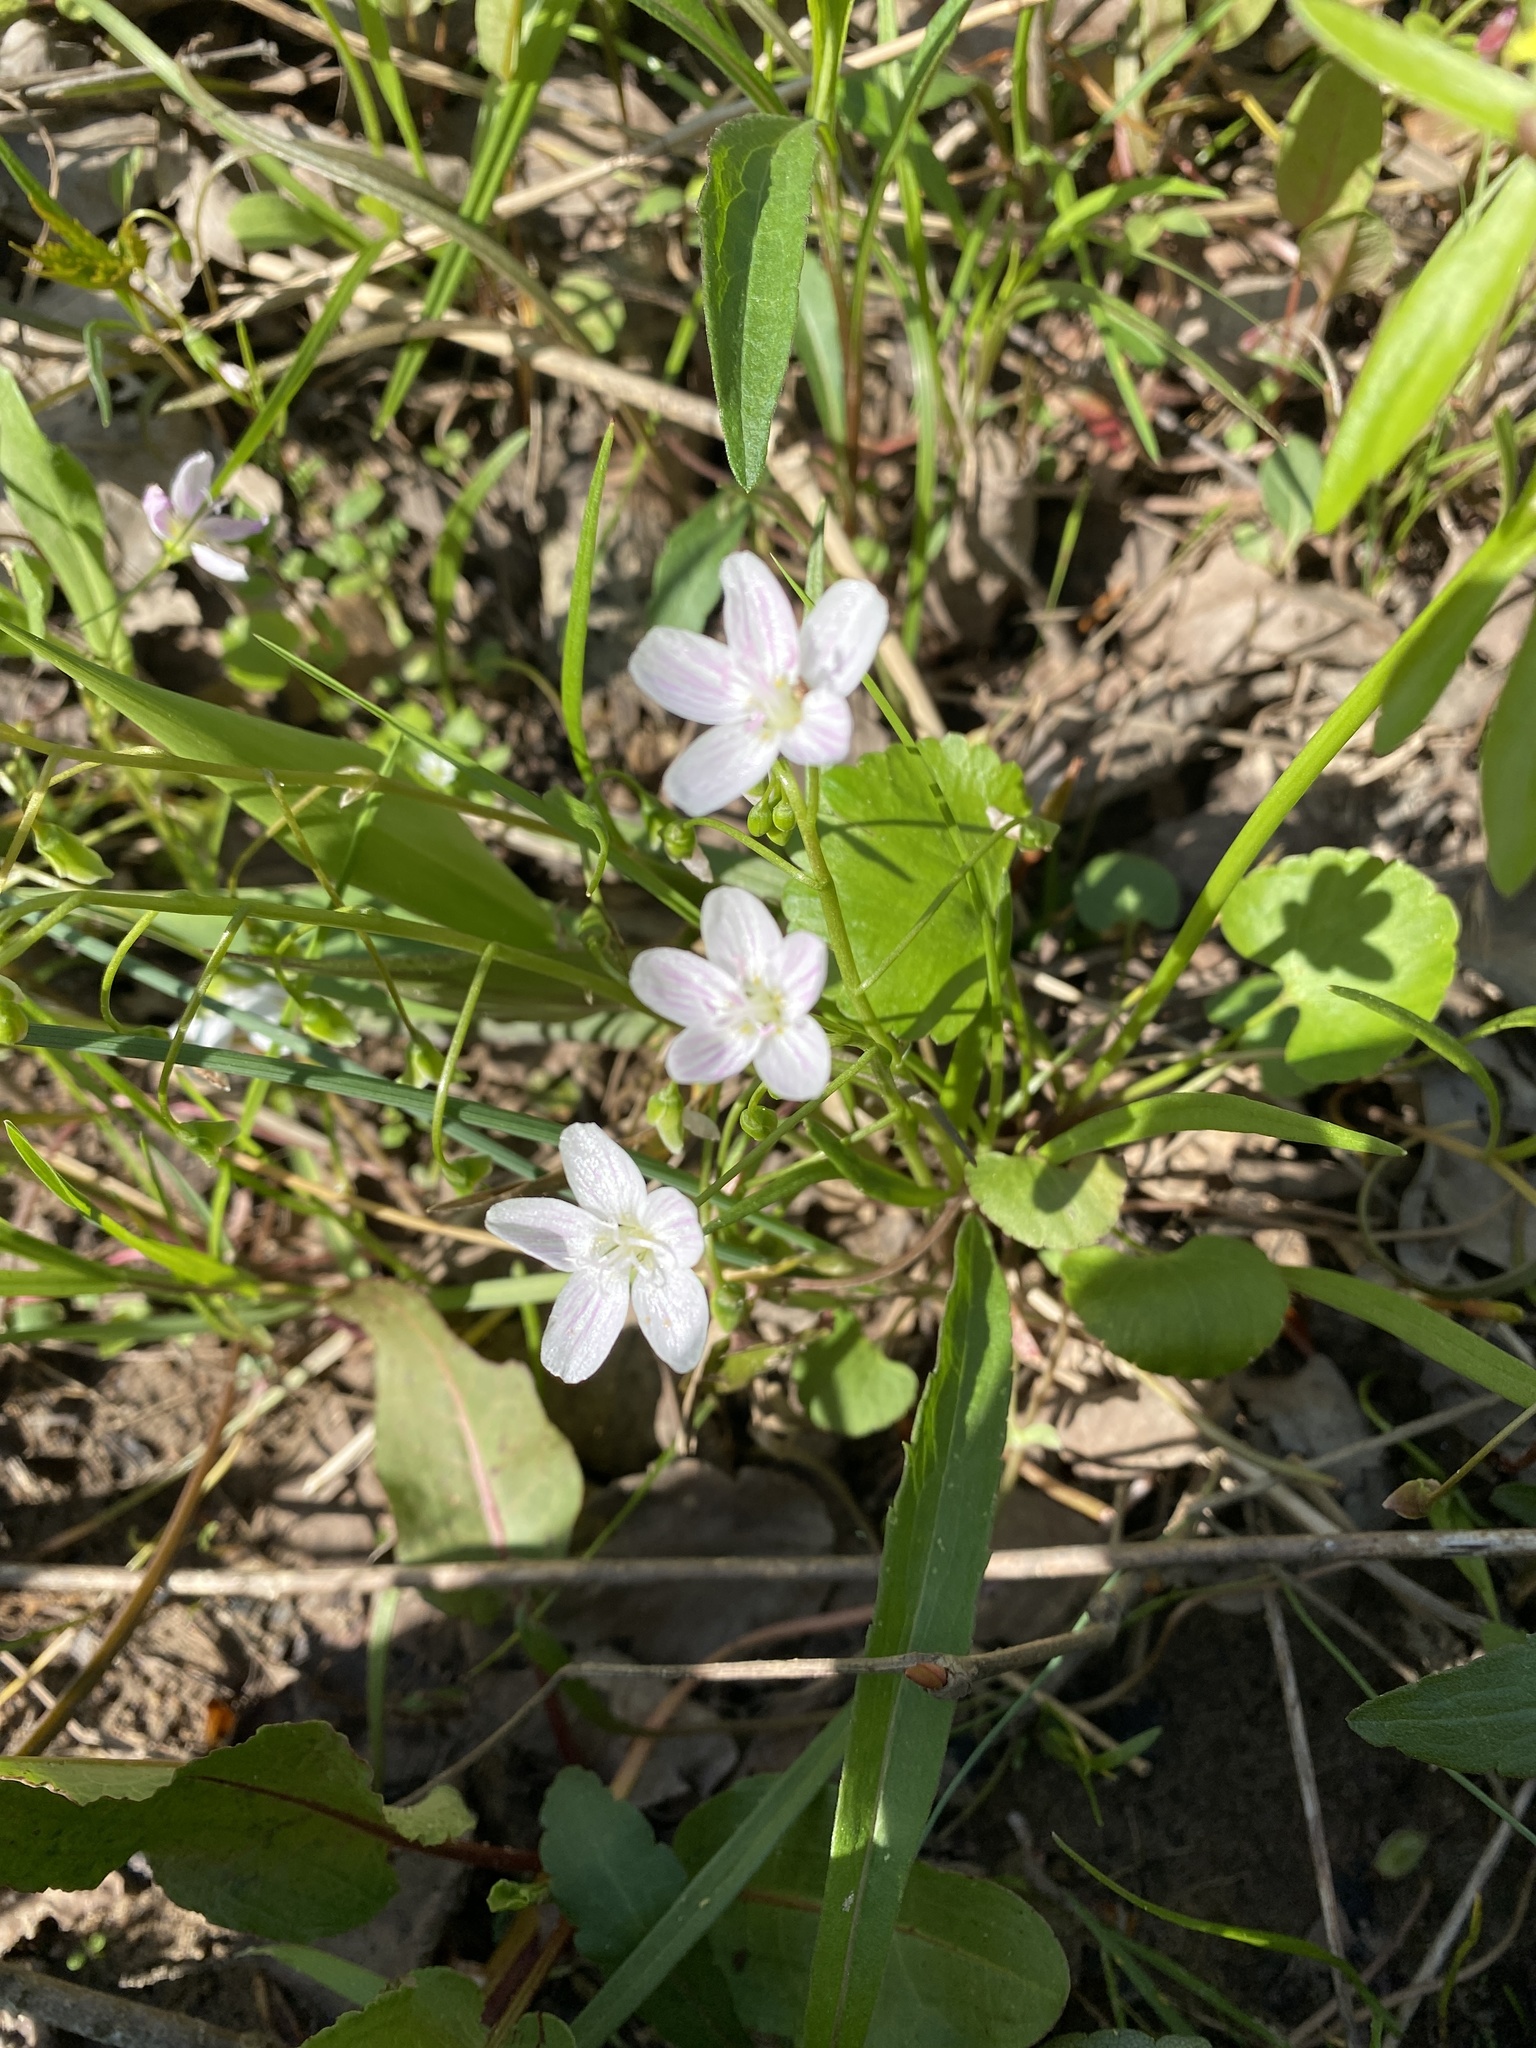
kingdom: Plantae
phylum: Tracheophyta
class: Magnoliopsida
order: Caryophyllales
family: Montiaceae
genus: Claytonia
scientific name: Claytonia virginica
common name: Virginia springbeauty
